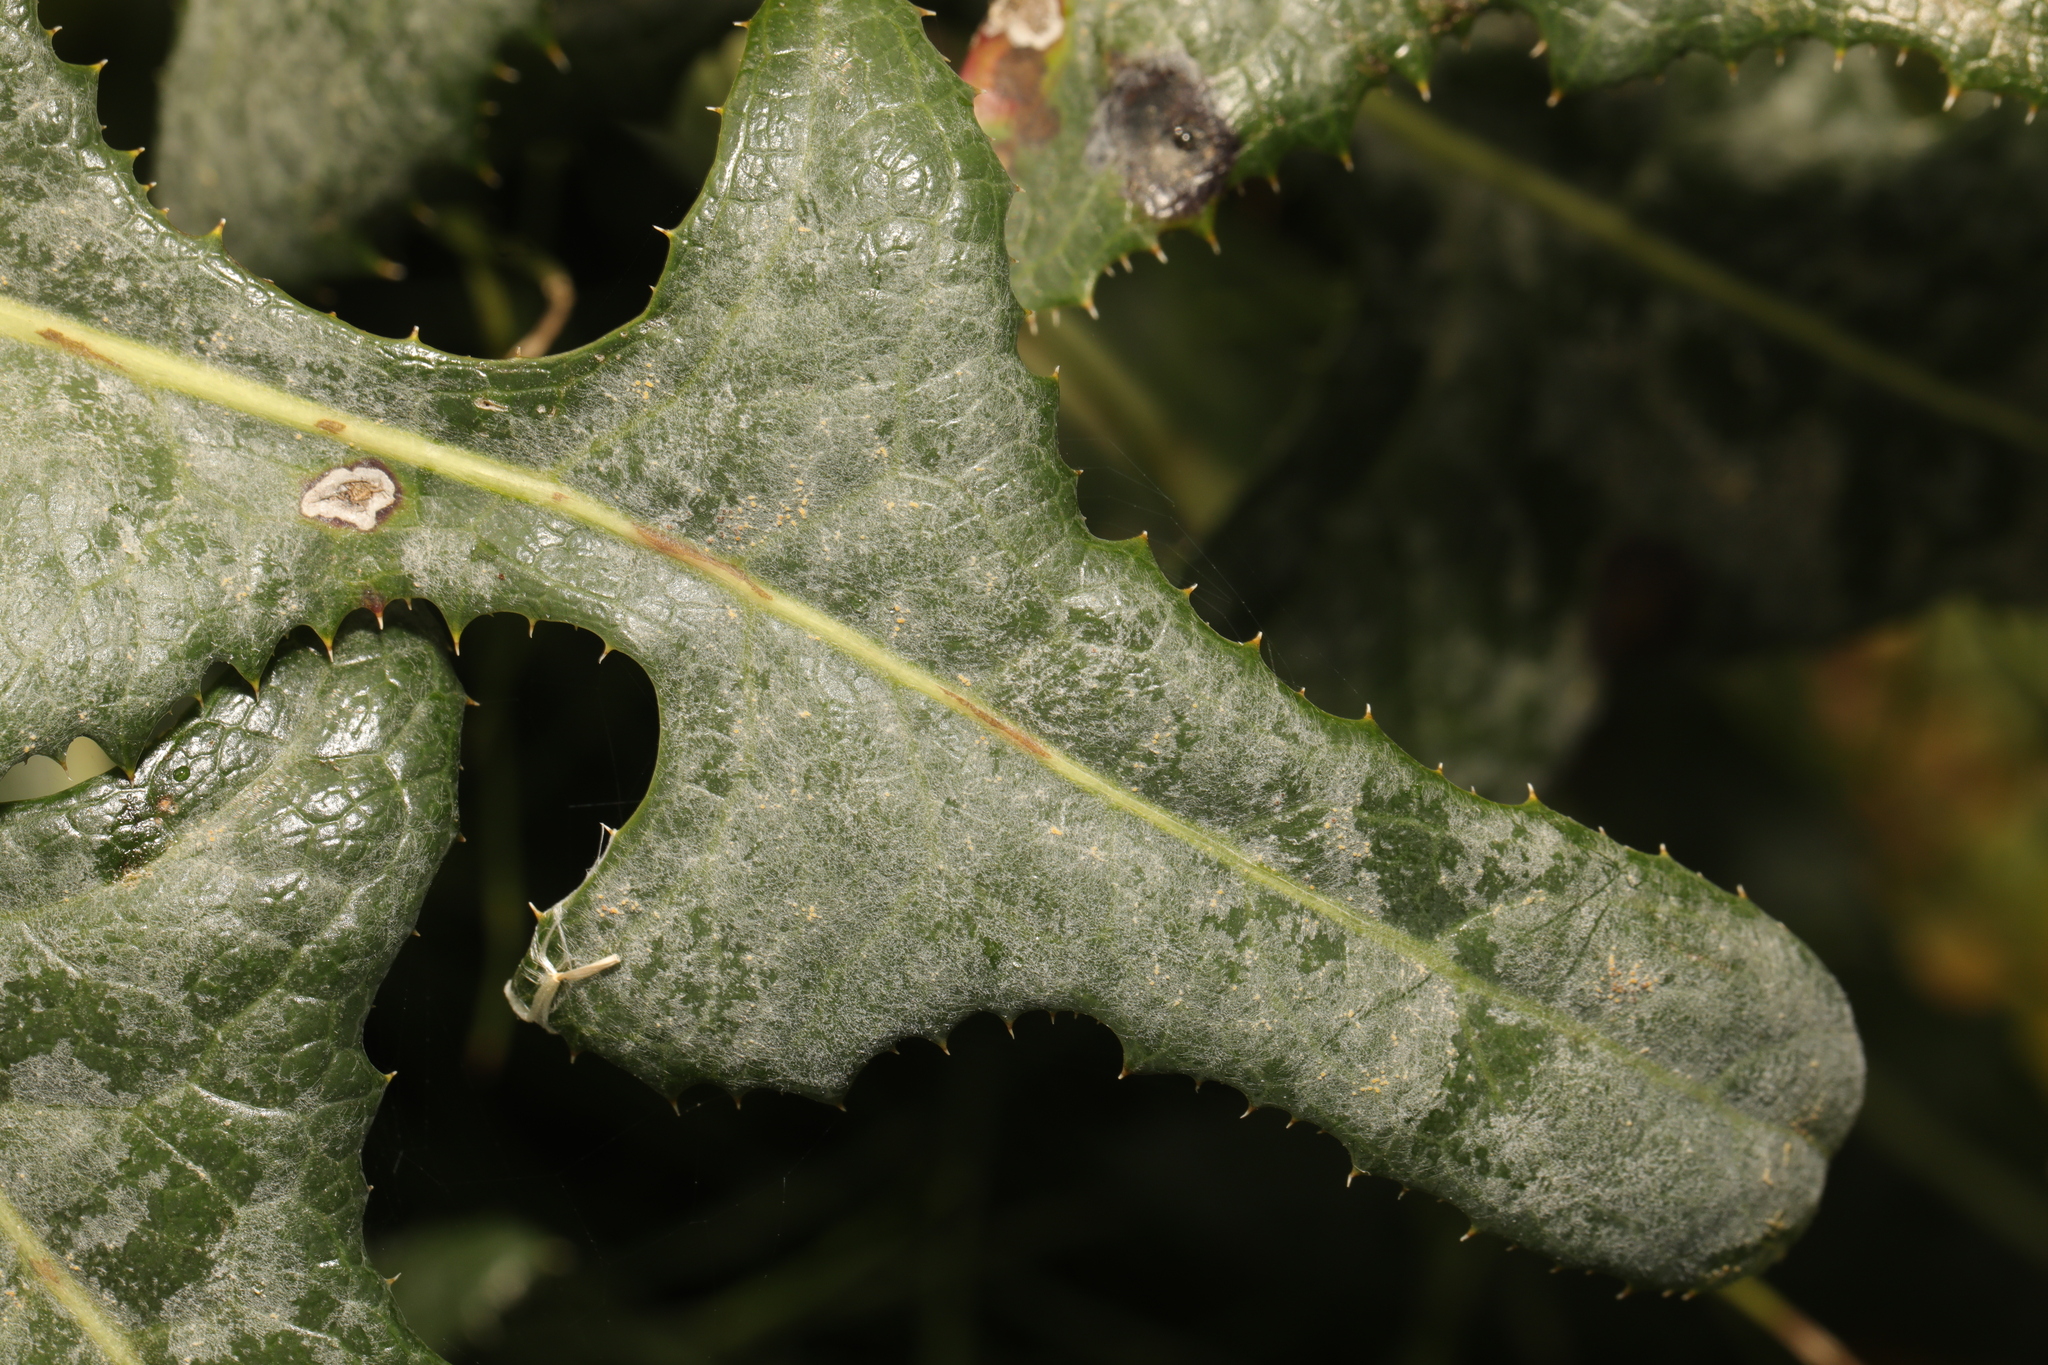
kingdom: Fungi
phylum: Ascomycota
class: Leotiomycetes
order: Helotiales
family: Erysiphaceae
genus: Golovinomyces
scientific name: Golovinomyces sonchicola
